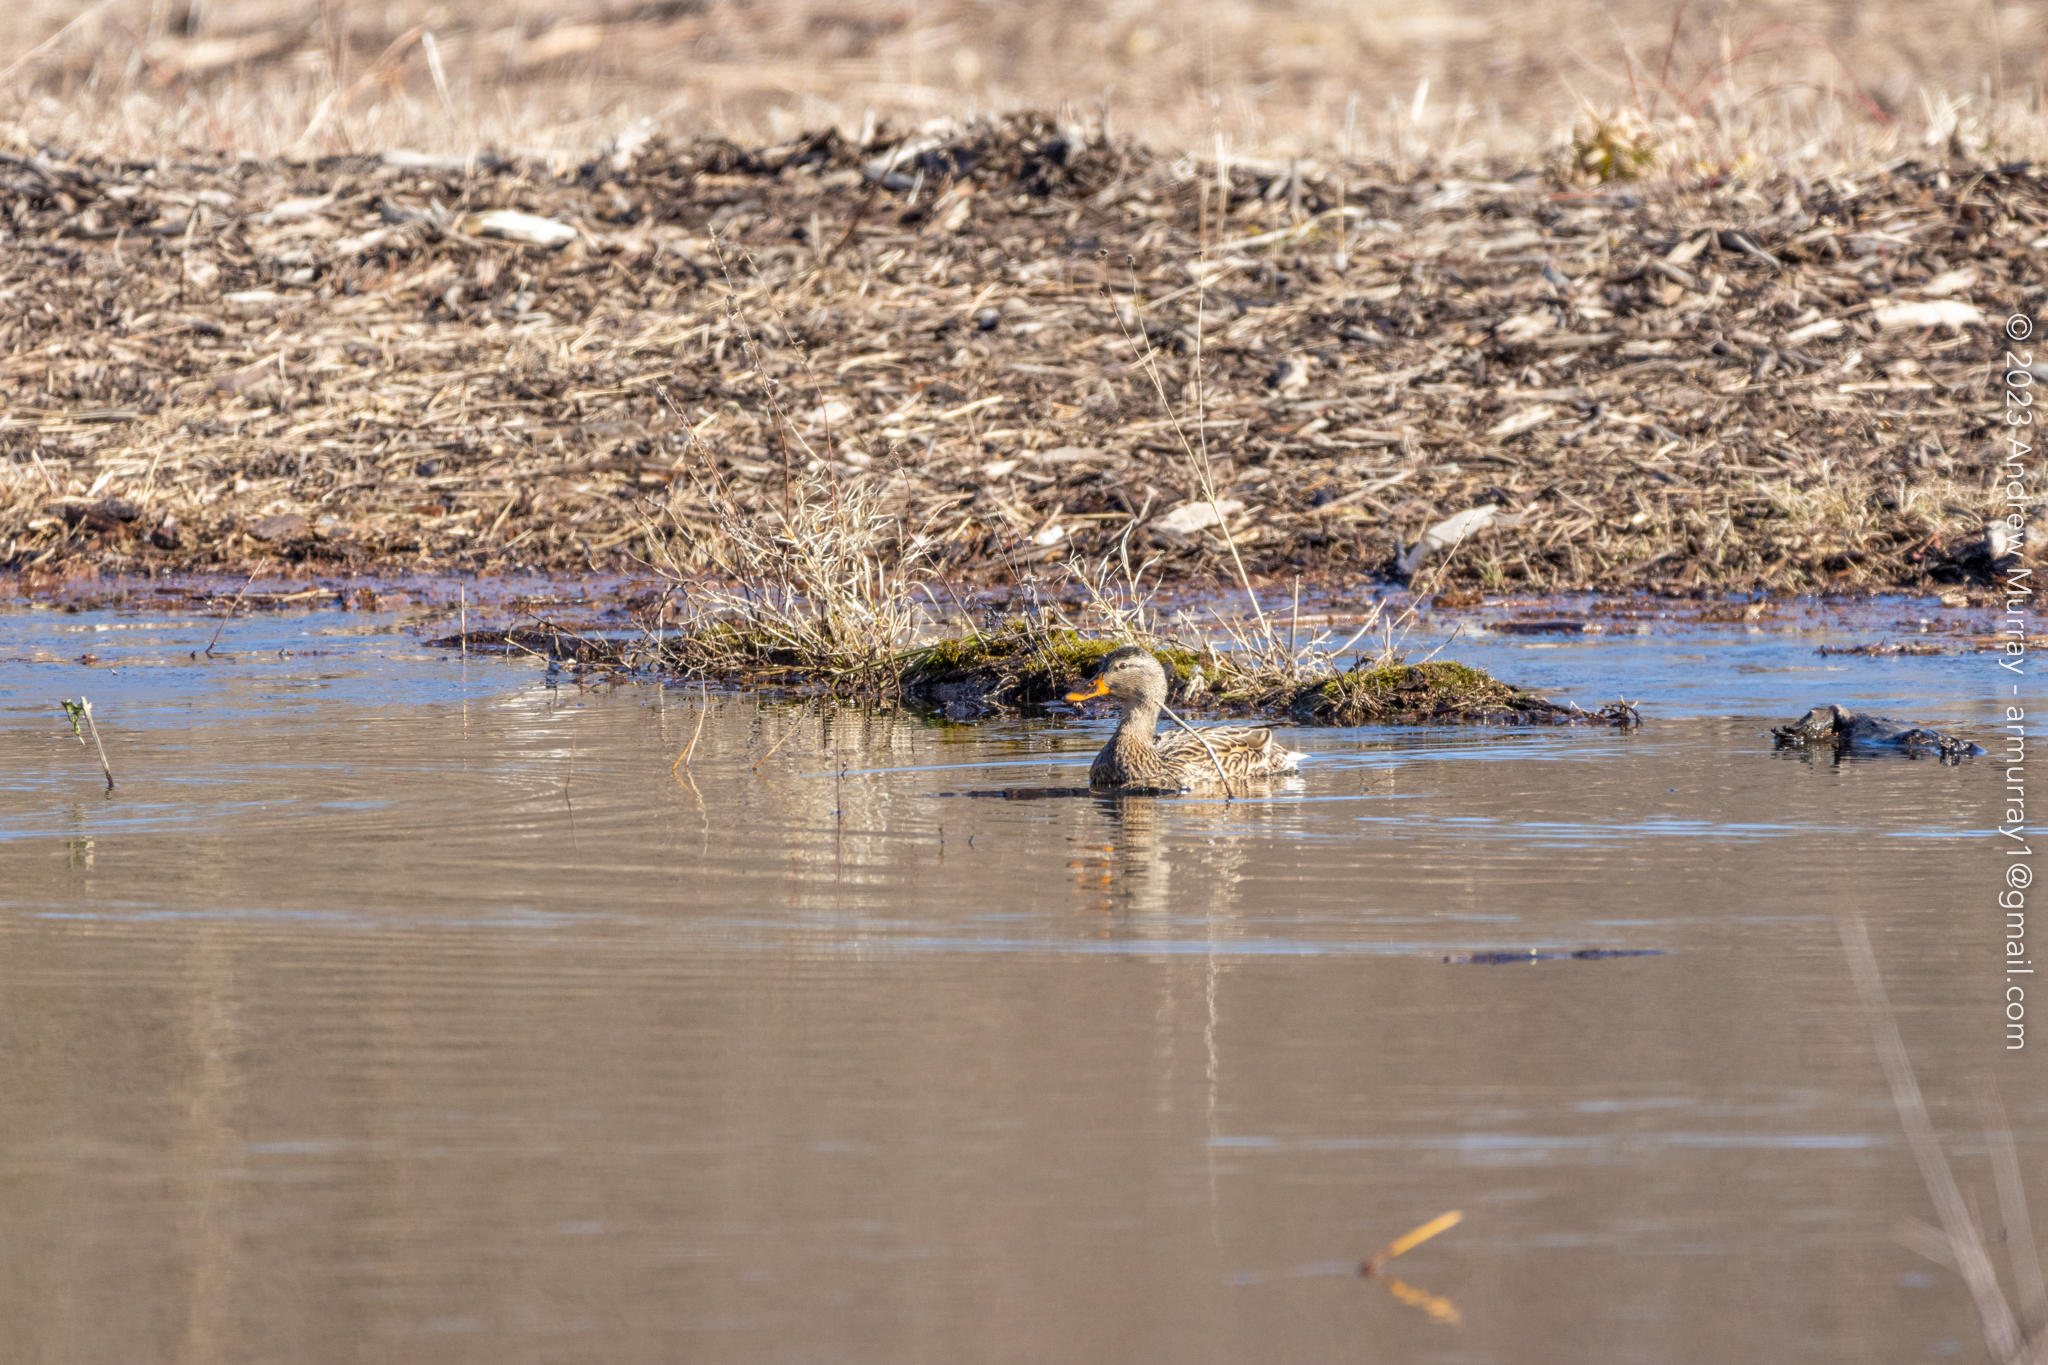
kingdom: Animalia
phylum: Chordata
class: Aves
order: Anseriformes
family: Anatidae
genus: Anas
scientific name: Anas platyrhynchos
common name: Mallard
